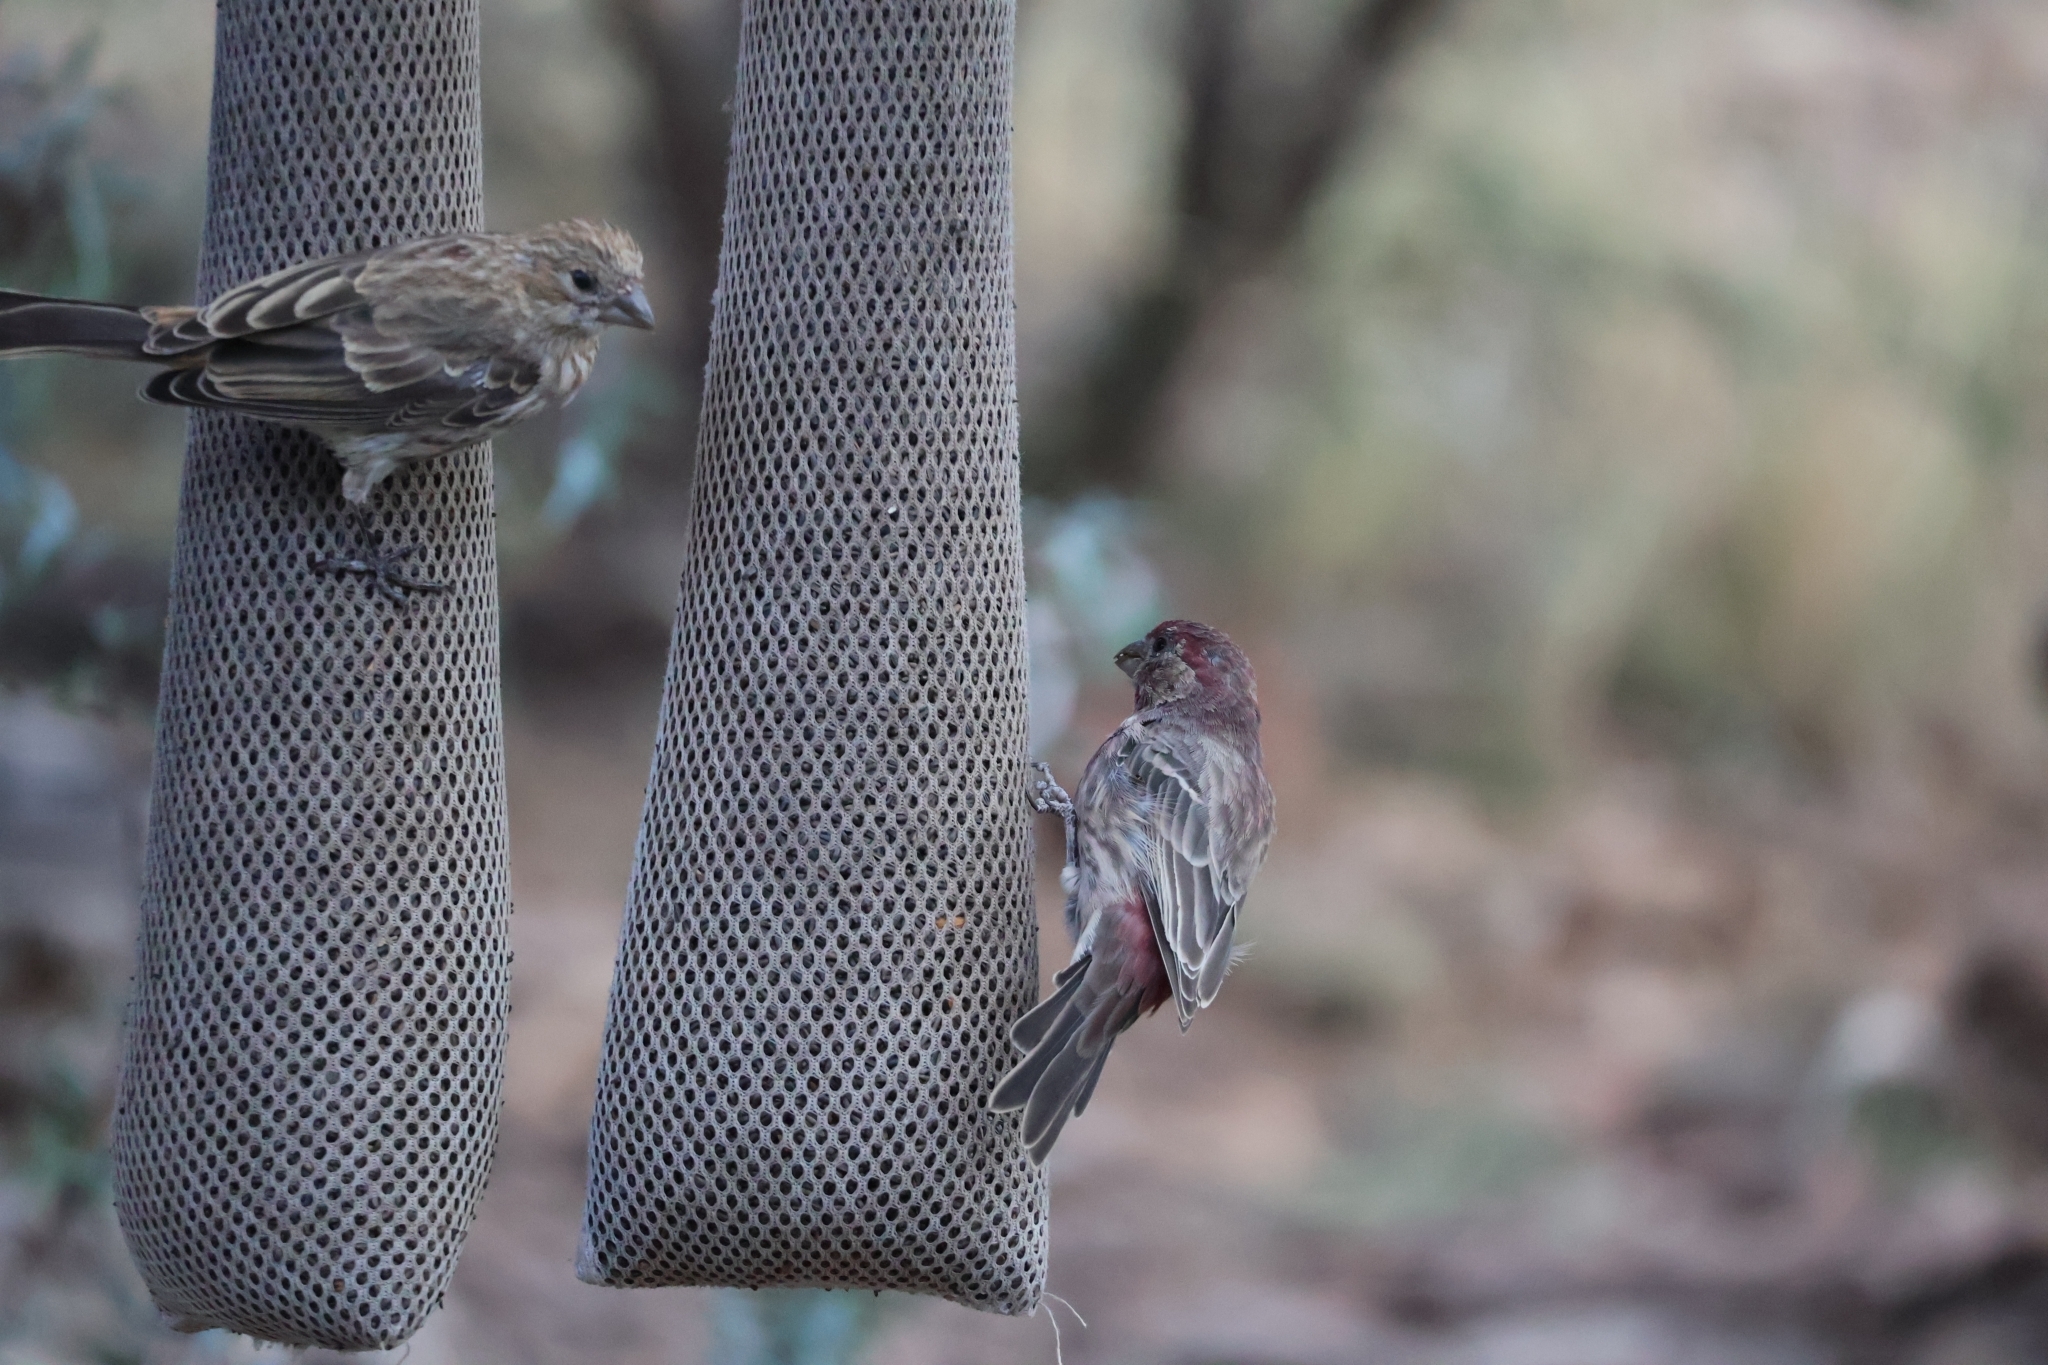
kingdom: Animalia
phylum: Chordata
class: Aves
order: Passeriformes
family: Fringillidae
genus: Haemorhous
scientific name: Haemorhous mexicanus
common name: House finch
